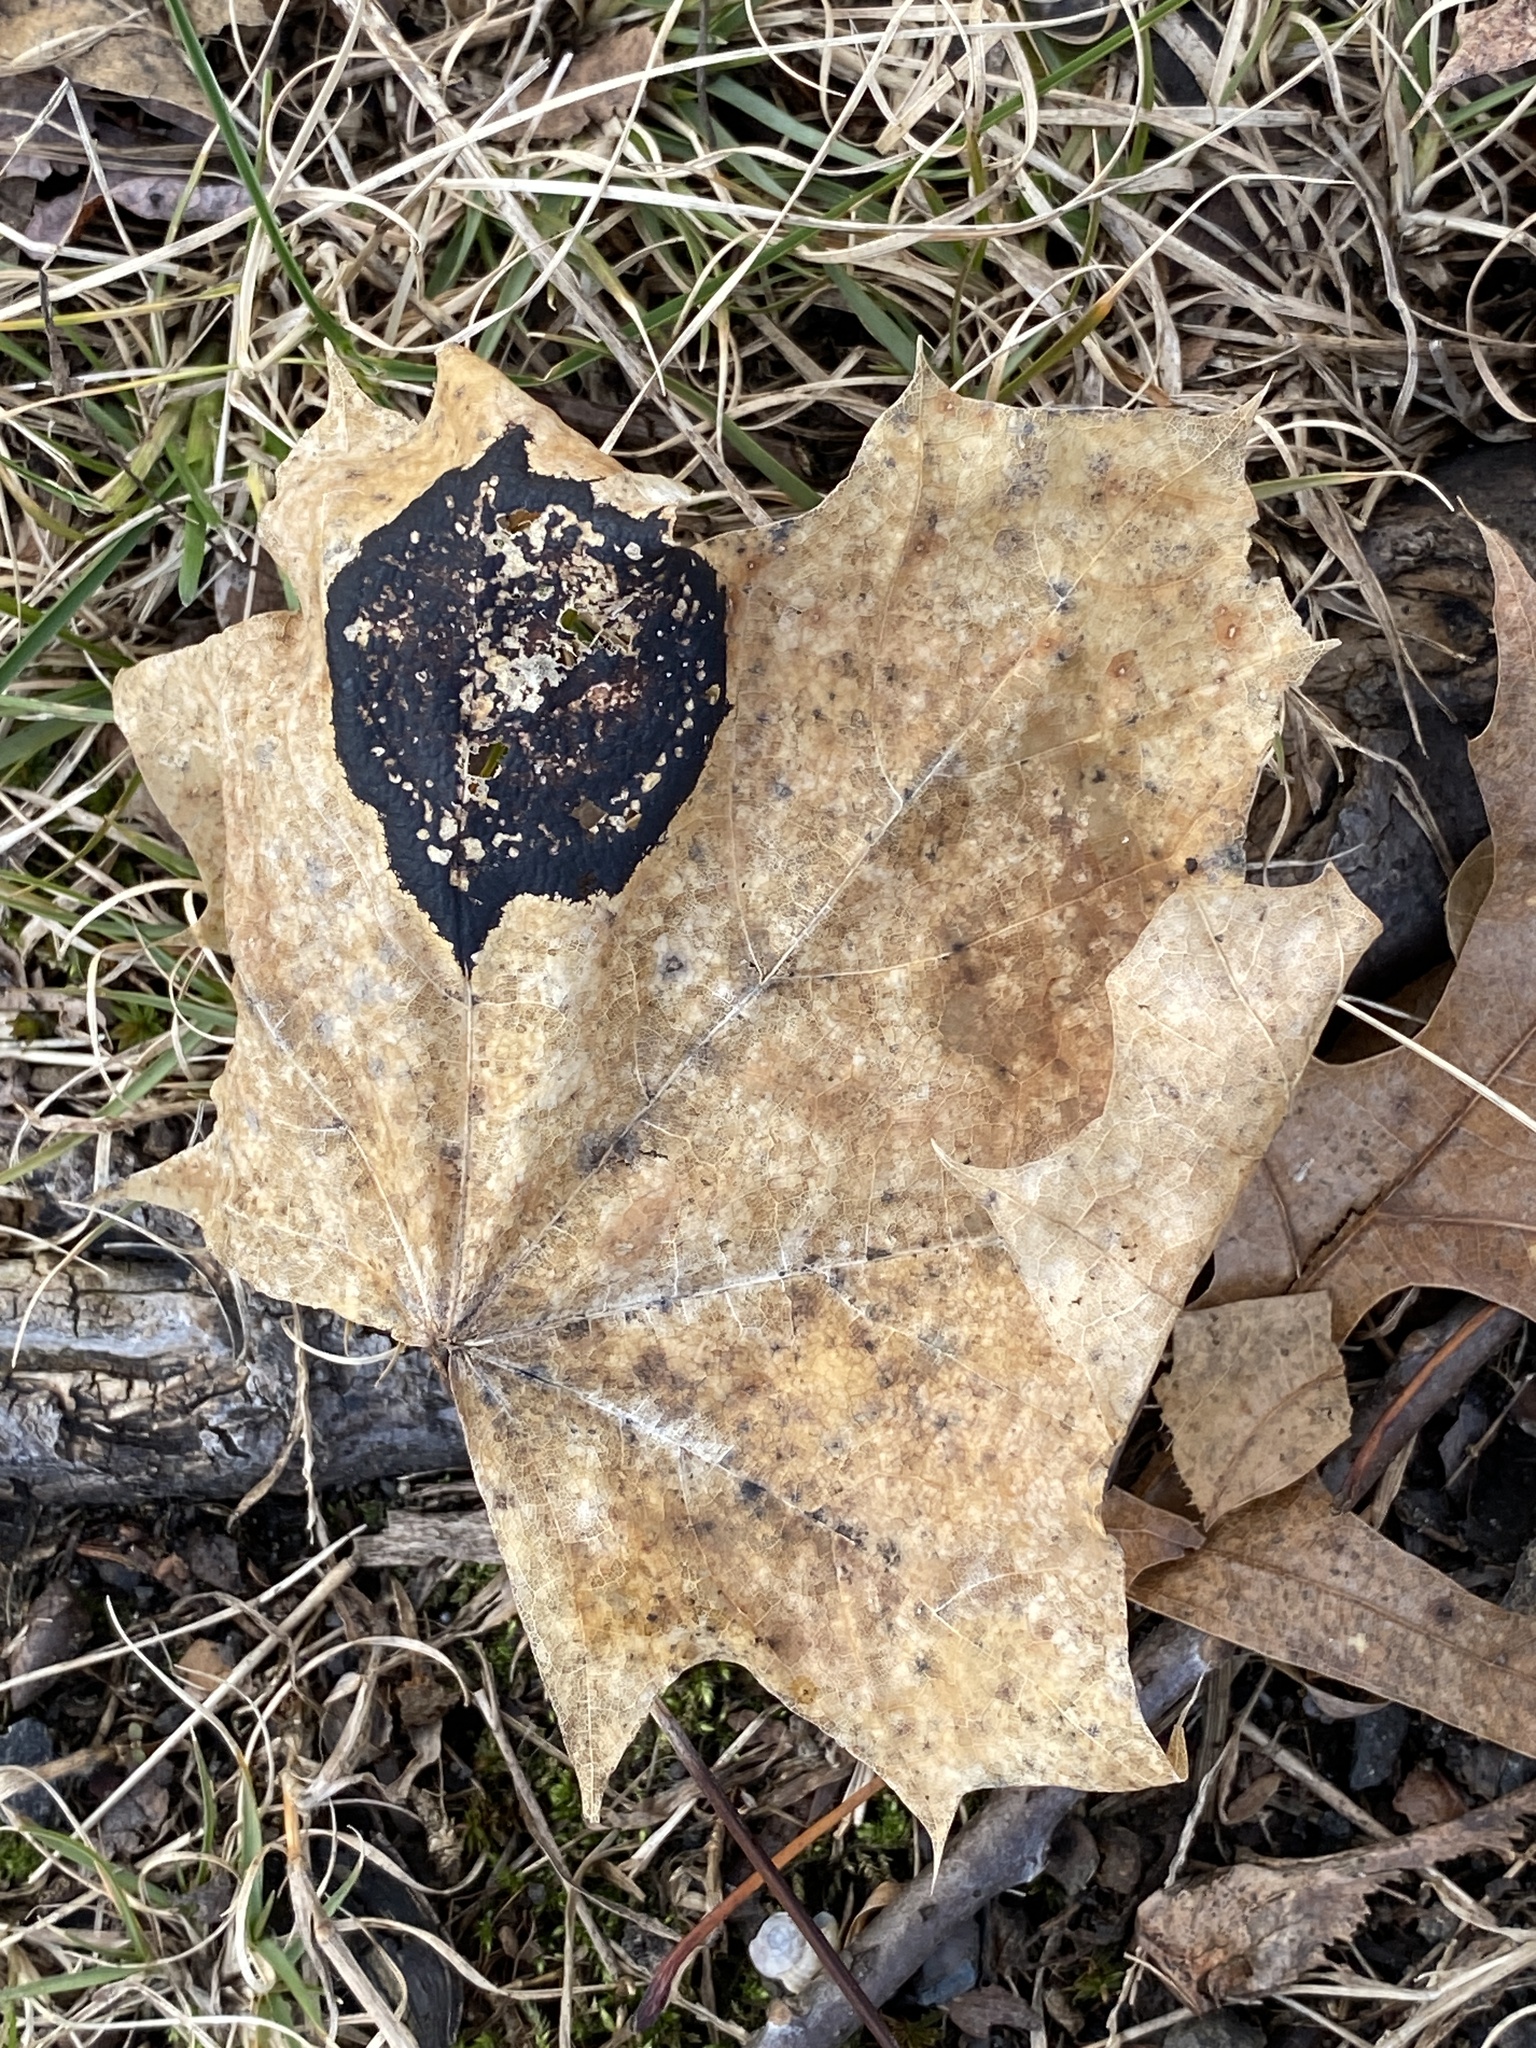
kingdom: Fungi
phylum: Ascomycota
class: Leotiomycetes
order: Rhytismatales
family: Rhytismataceae
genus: Rhytisma
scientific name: Rhytisma acerinum
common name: European tar spot
